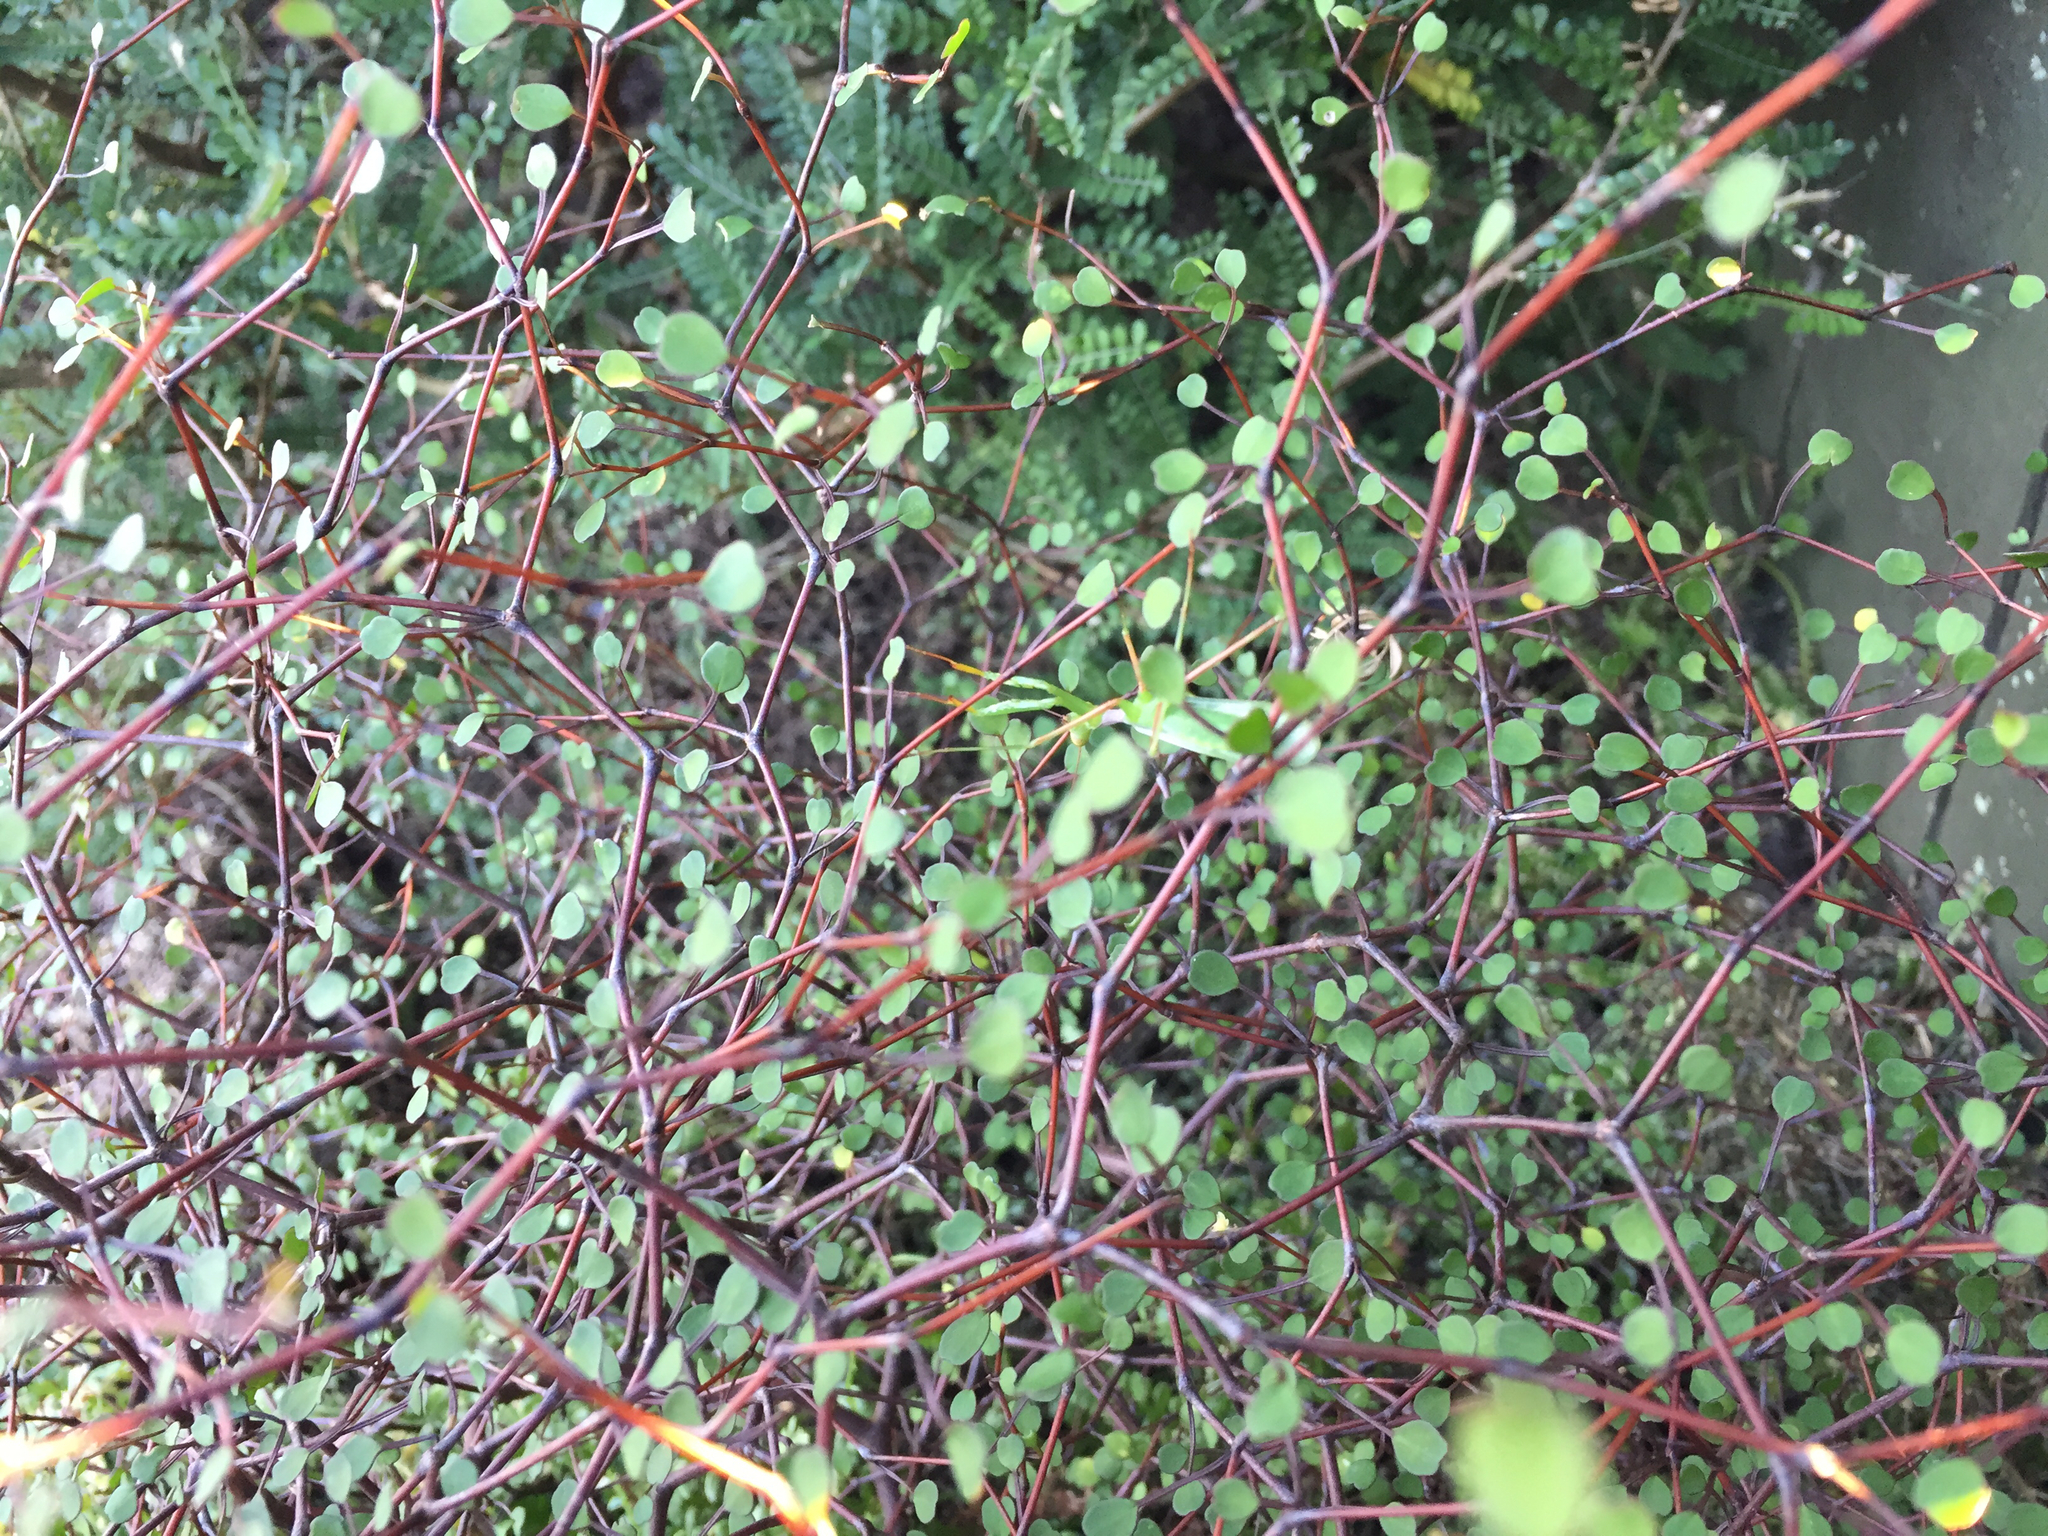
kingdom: Animalia
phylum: Arthropoda
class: Insecta
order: Mantodea
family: Miomantidae
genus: Miomantis
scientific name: Miomantis caffra
